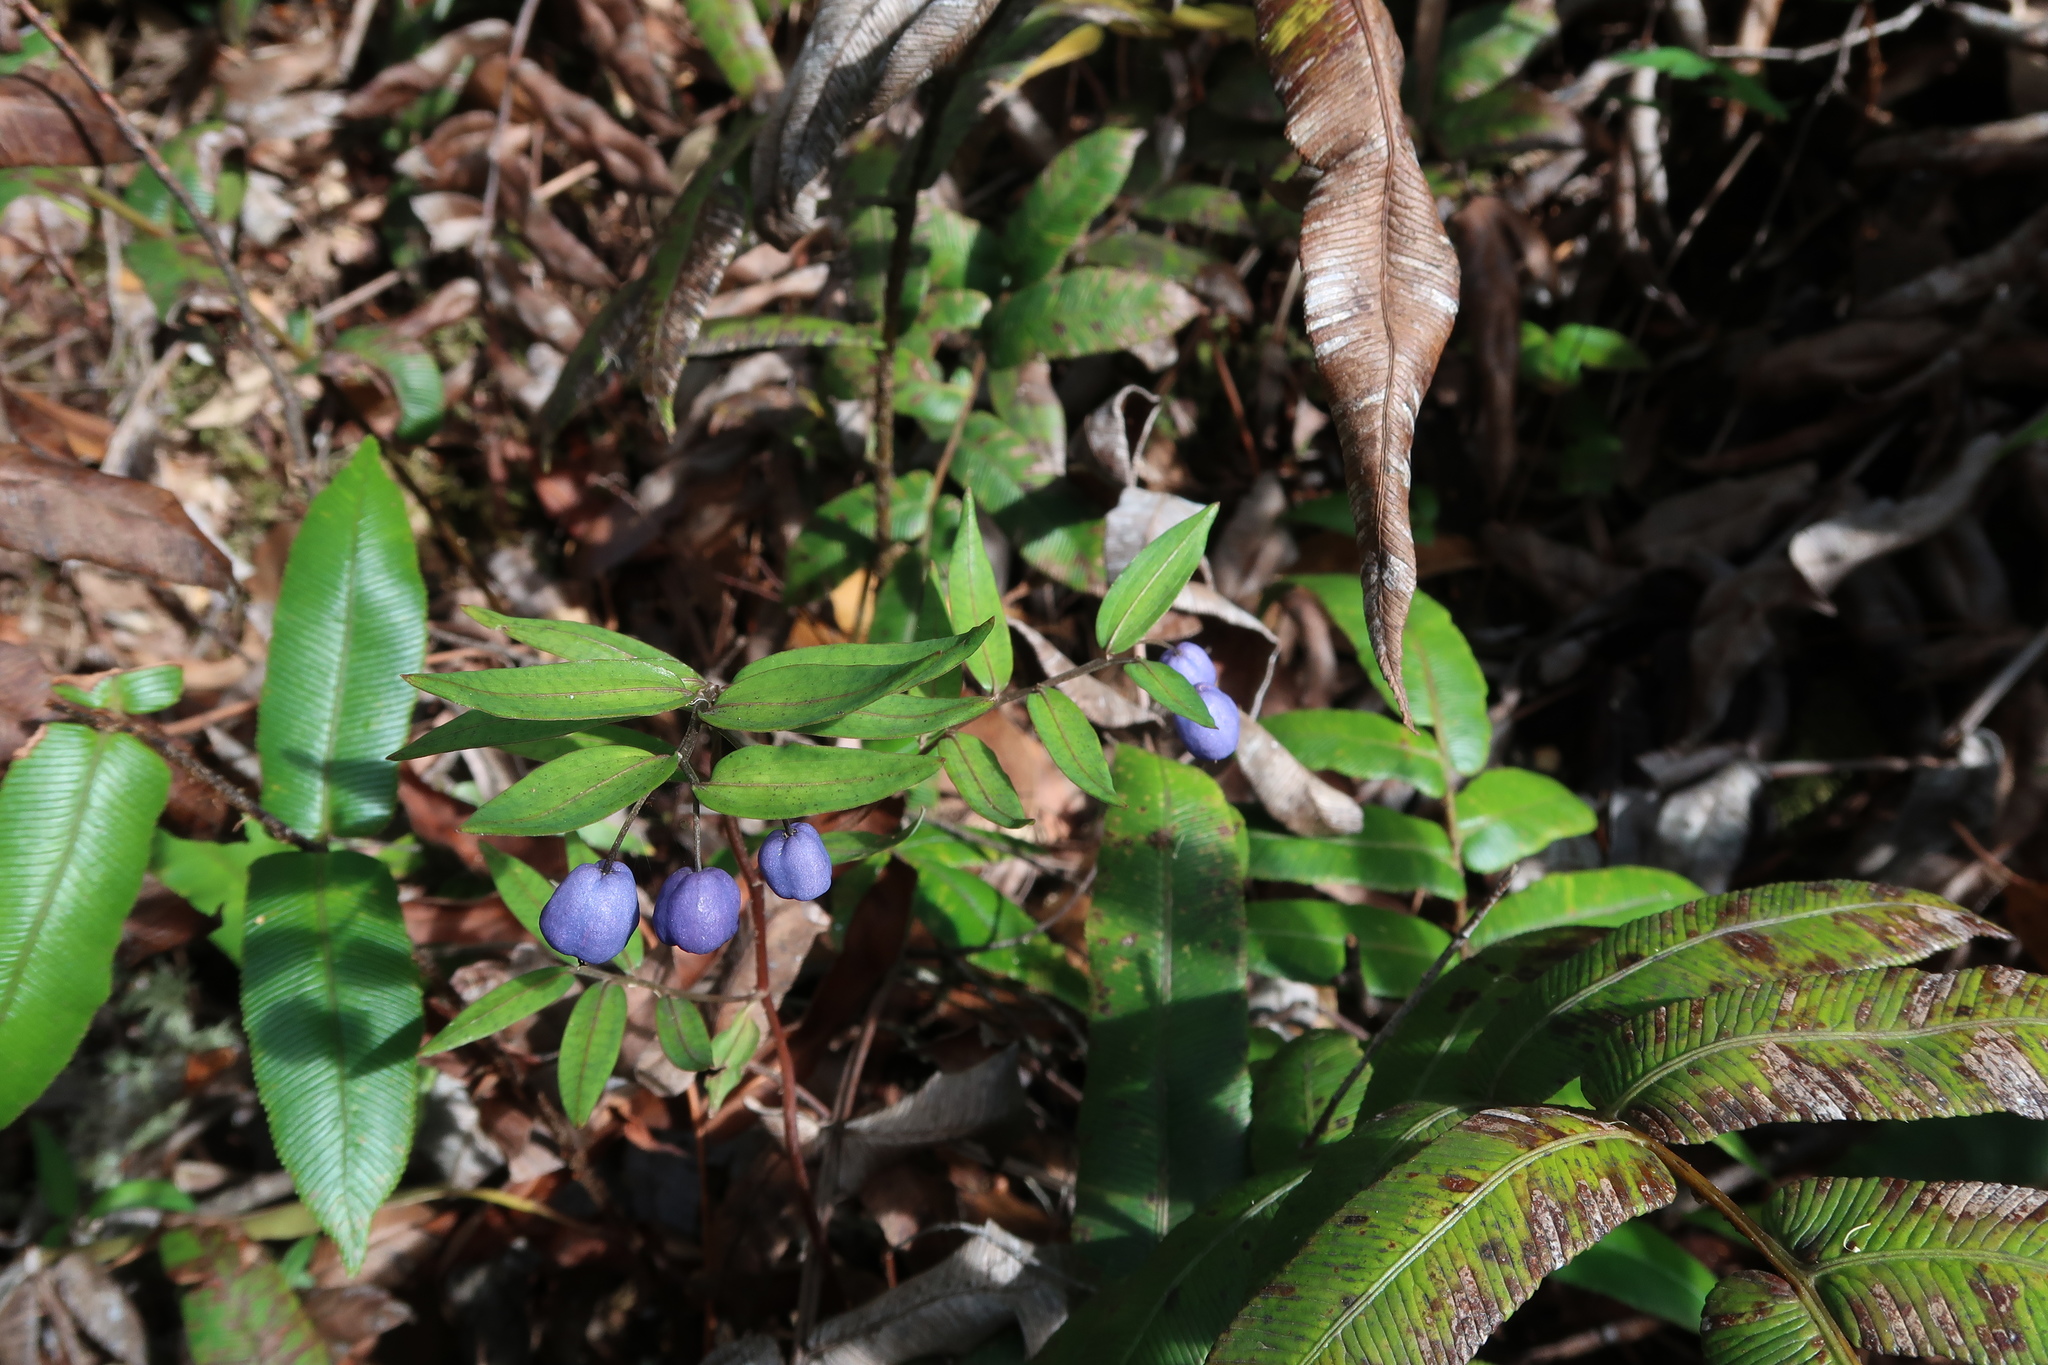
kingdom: Plantae
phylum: Tracheophyta
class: Liliopsida
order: Liliales
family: Alstroemeriaceae
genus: Drymophila
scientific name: Drymophila cyanocarpa
